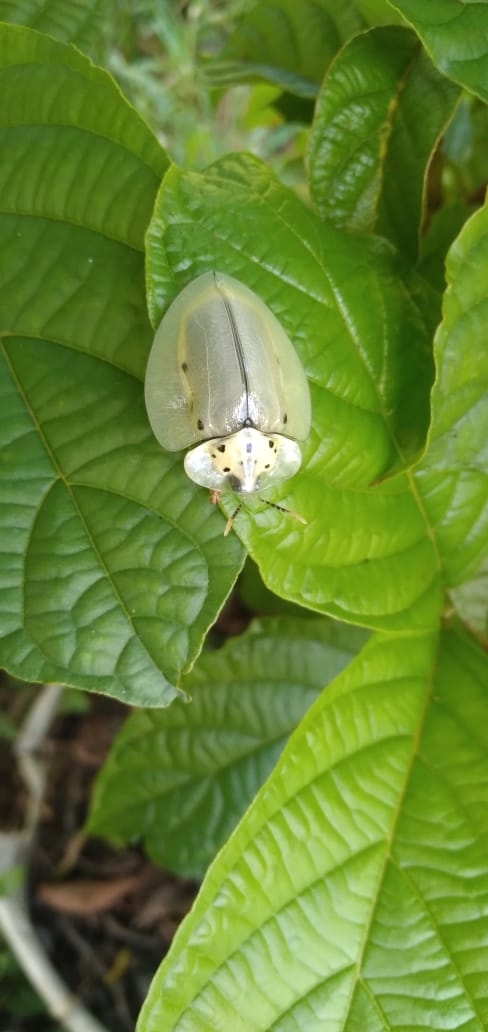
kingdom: Animalia
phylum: Arthropoda
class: Insecta
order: Coleoptera
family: Chrysomelidae
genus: Physonota
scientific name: Physonota pellucida
